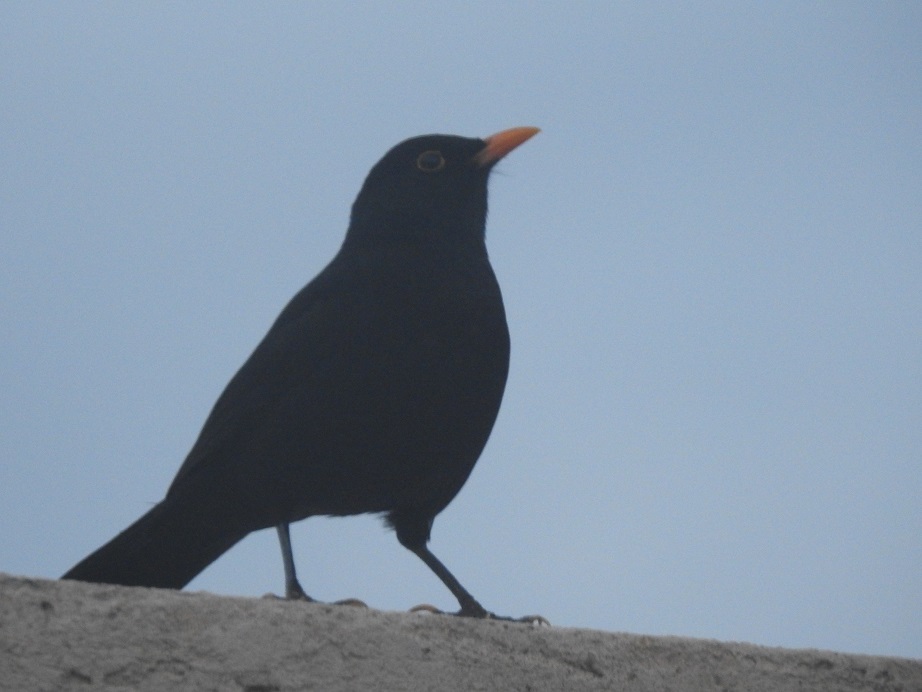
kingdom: Animalia
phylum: Chordata
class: Aves
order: Passeriformes
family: Turdidae
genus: Turdus
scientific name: Turdus merula
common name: Common blackbird
